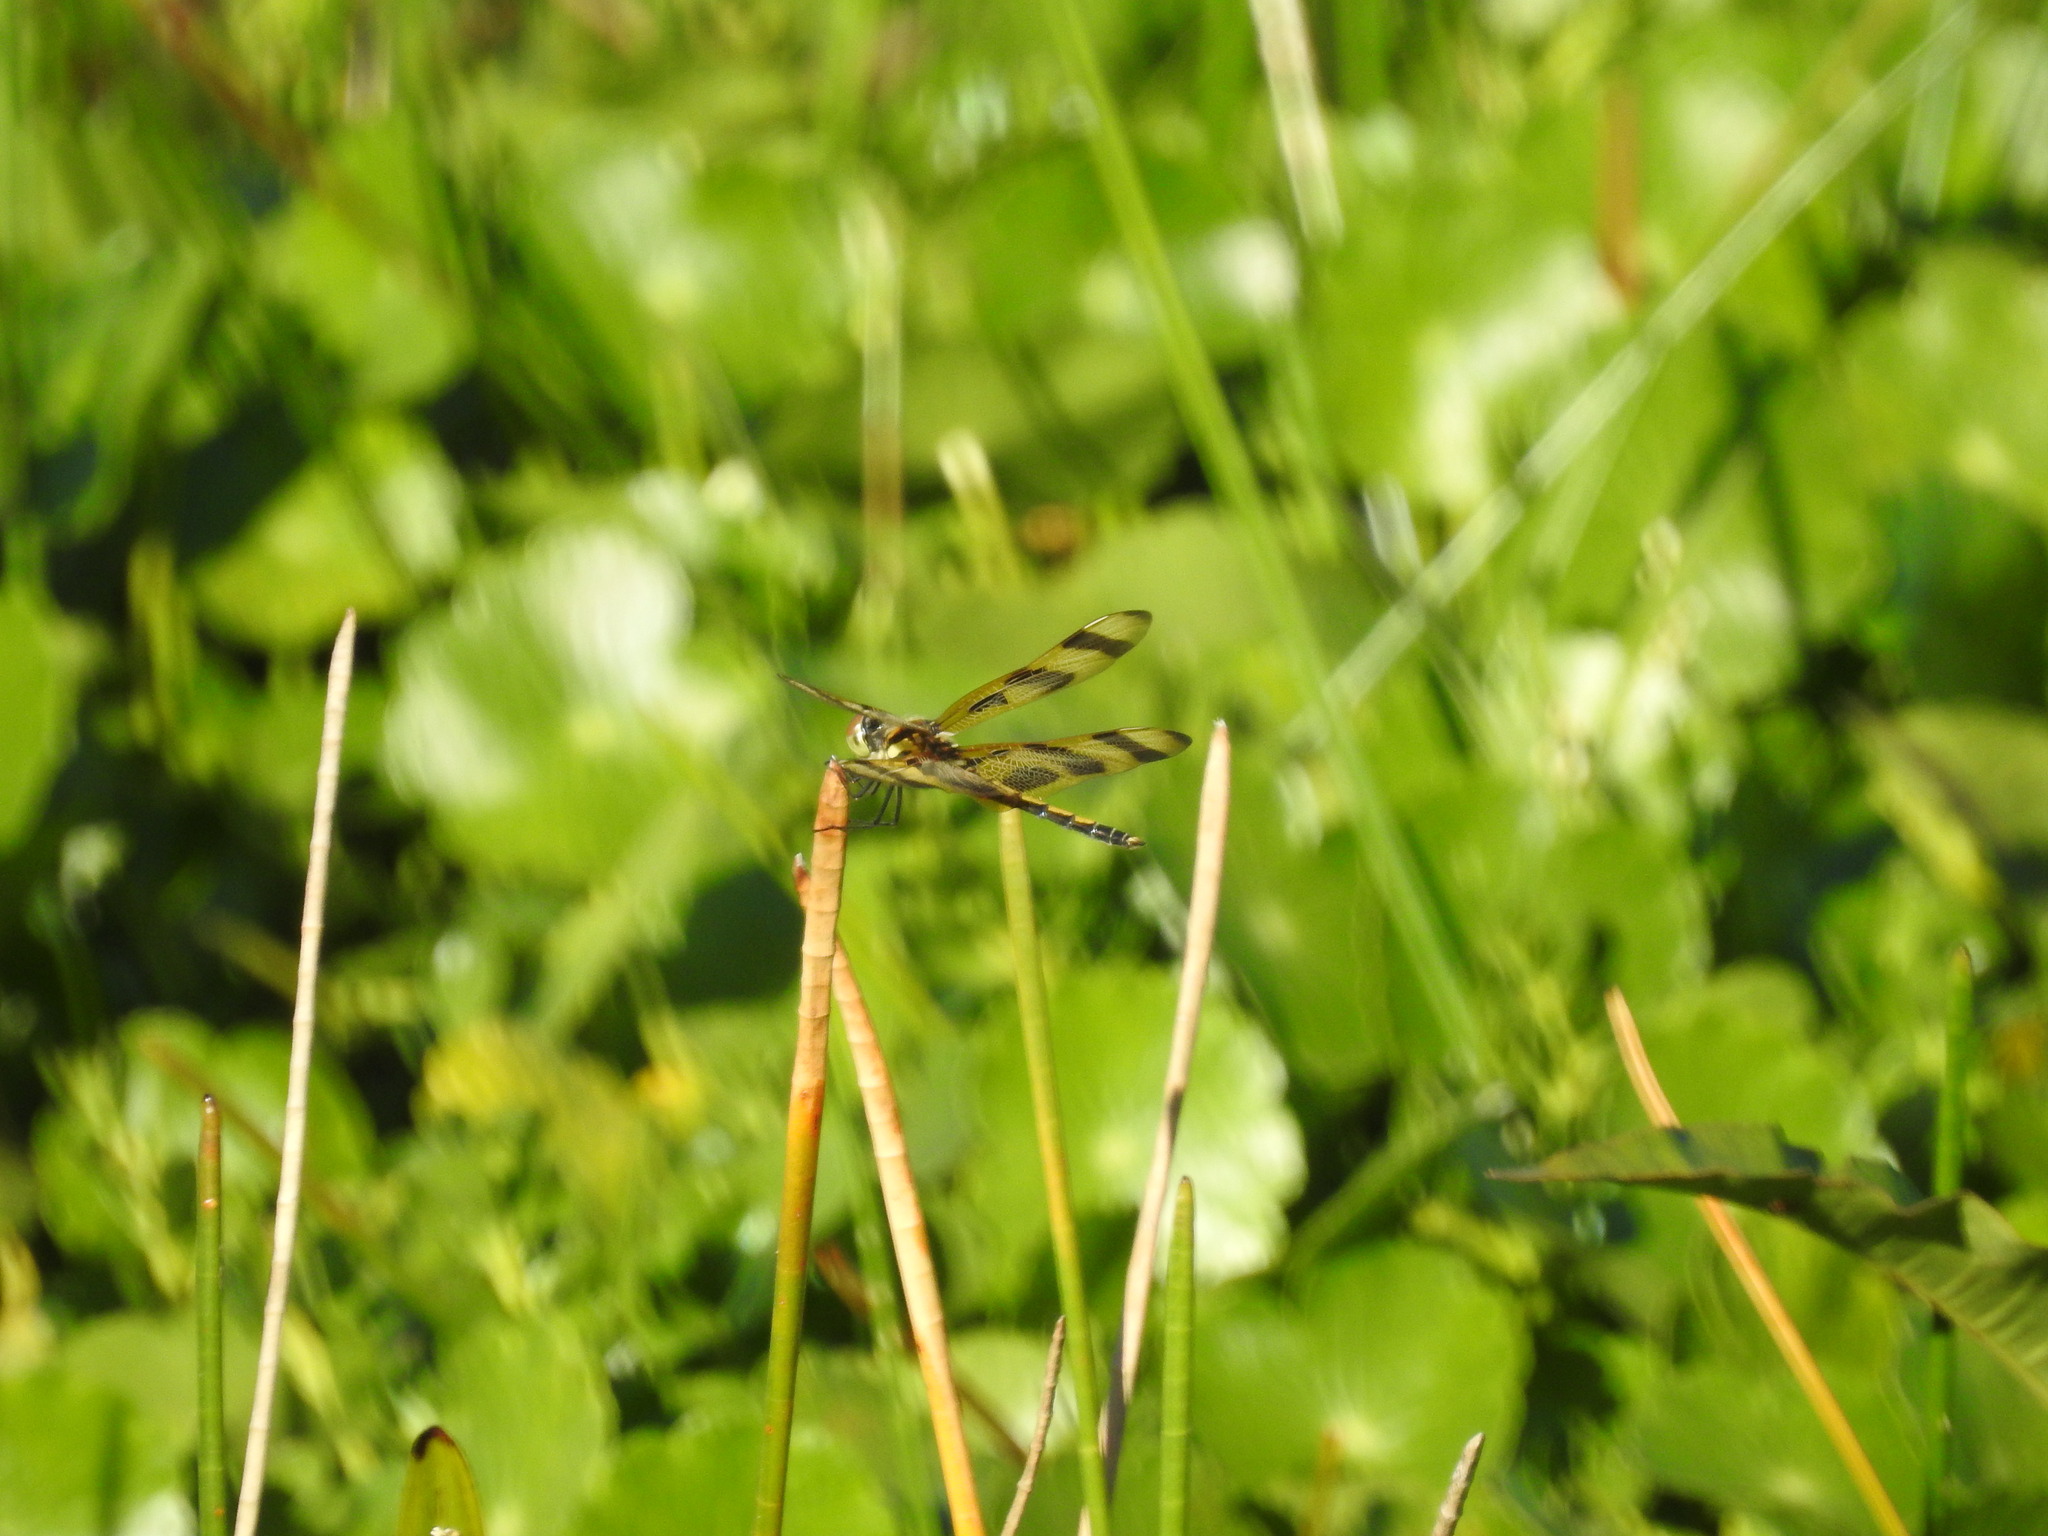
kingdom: Animalia
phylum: Arthropoda
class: Insecta
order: Odonata
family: Libellulidae
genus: Celithemis
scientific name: Celithemis eponina
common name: Halloween pennant
